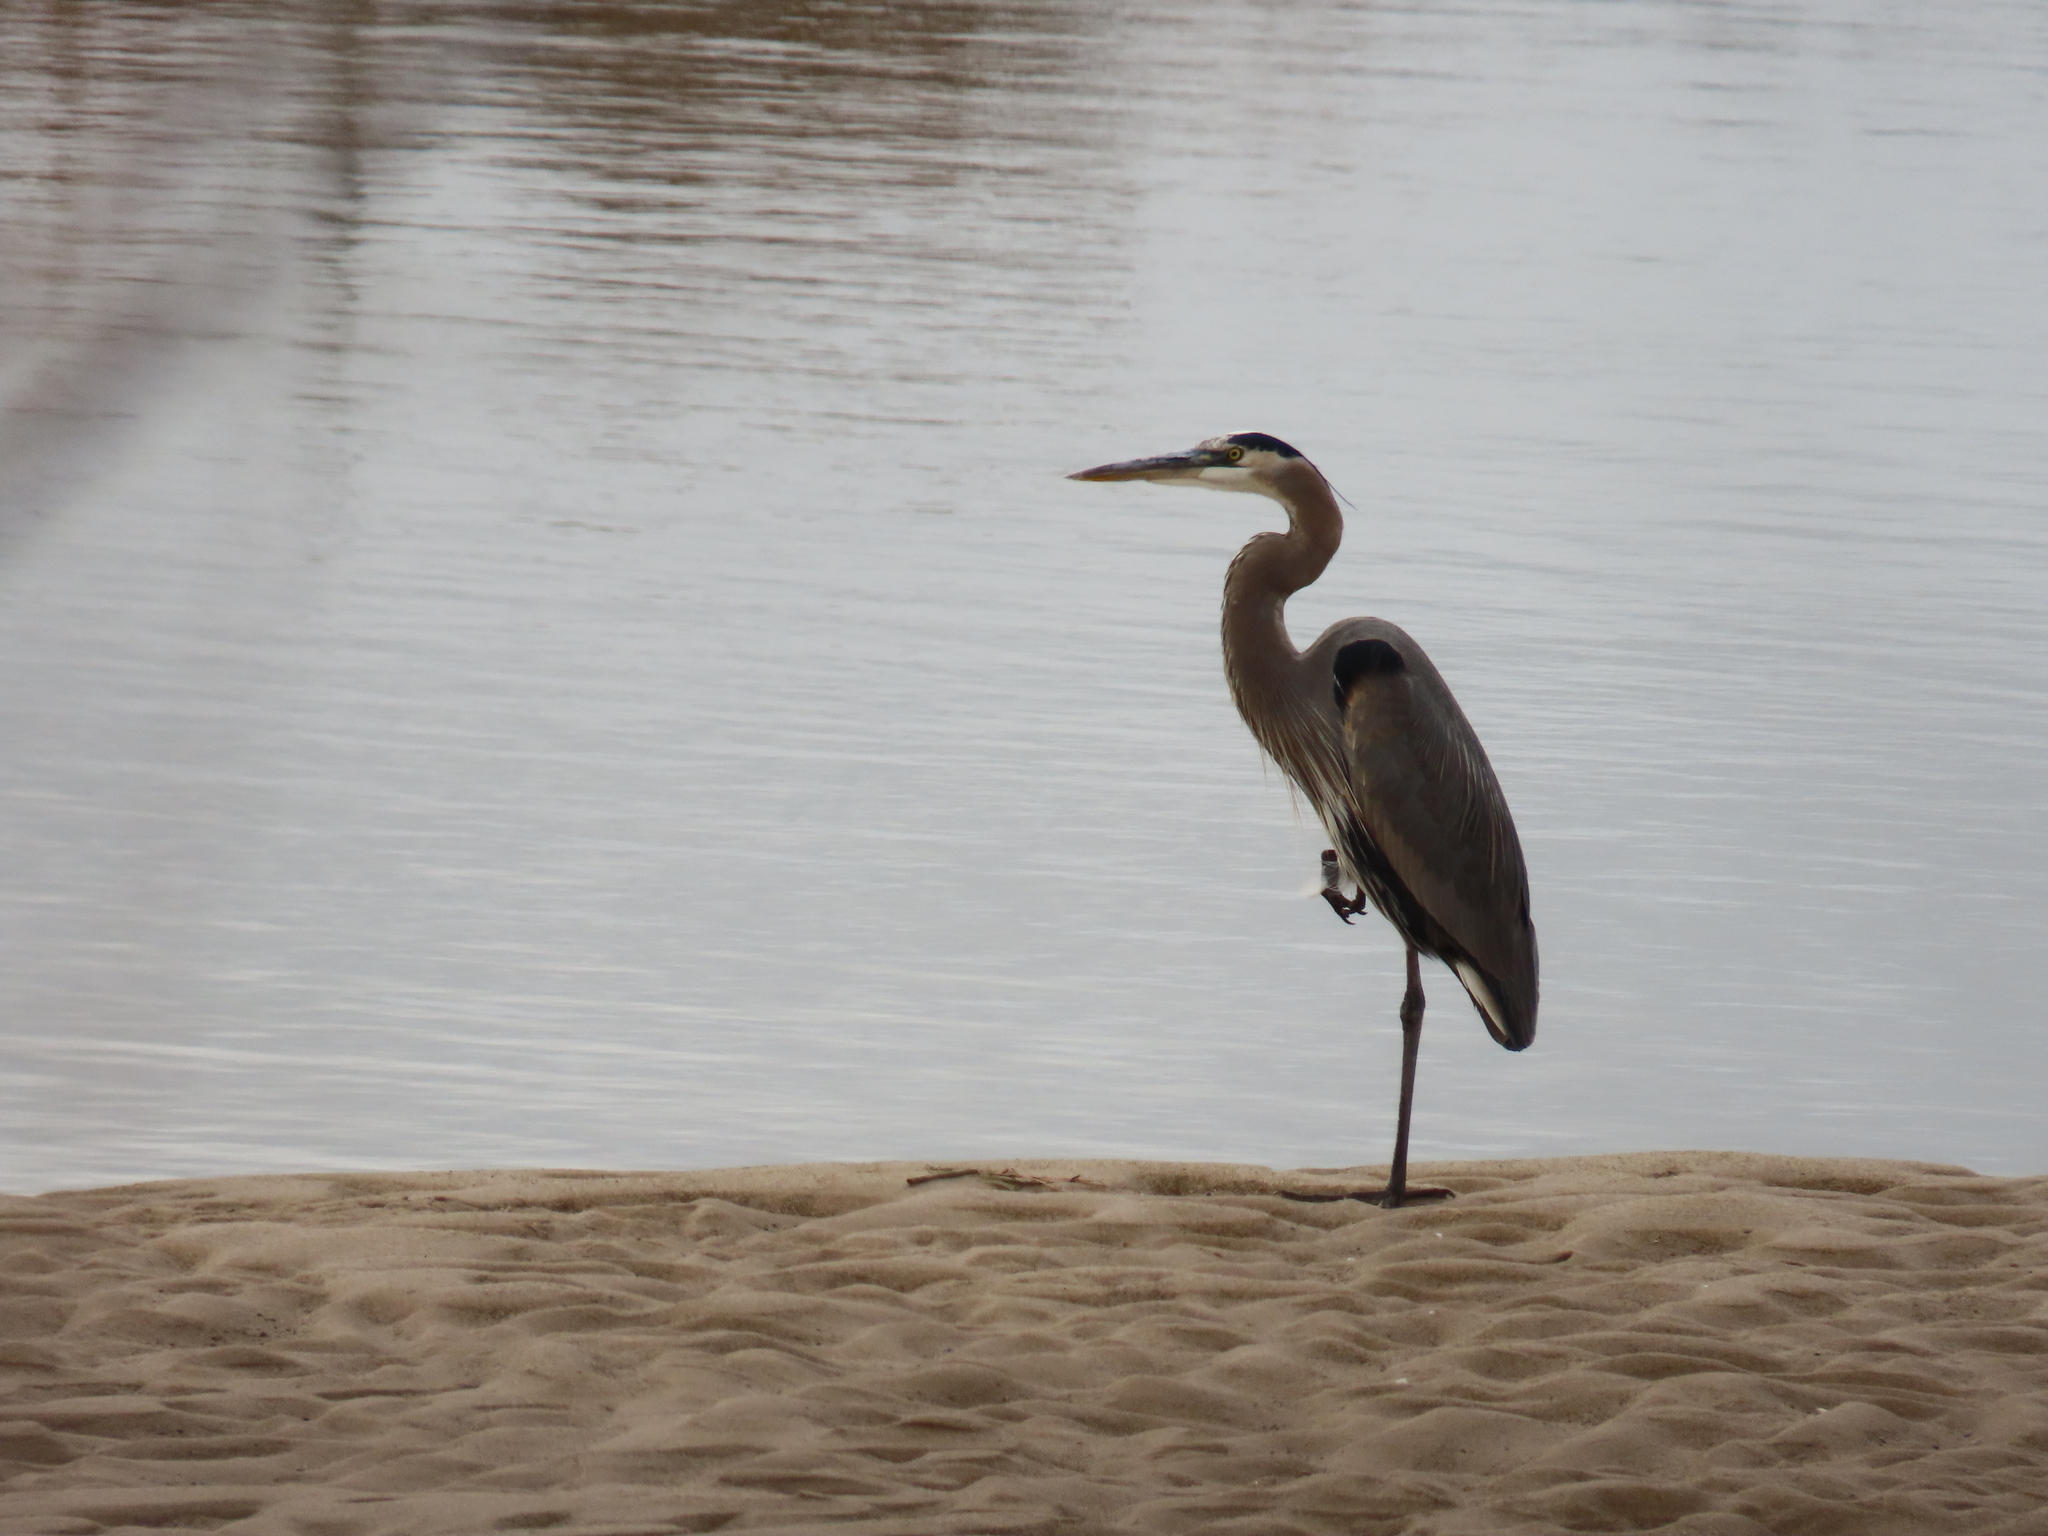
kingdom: Animalia
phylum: Chordata
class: Aves
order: Pelecaniformes
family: Ardeidae
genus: Ardea
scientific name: Ardea herodias
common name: Great blue heron
